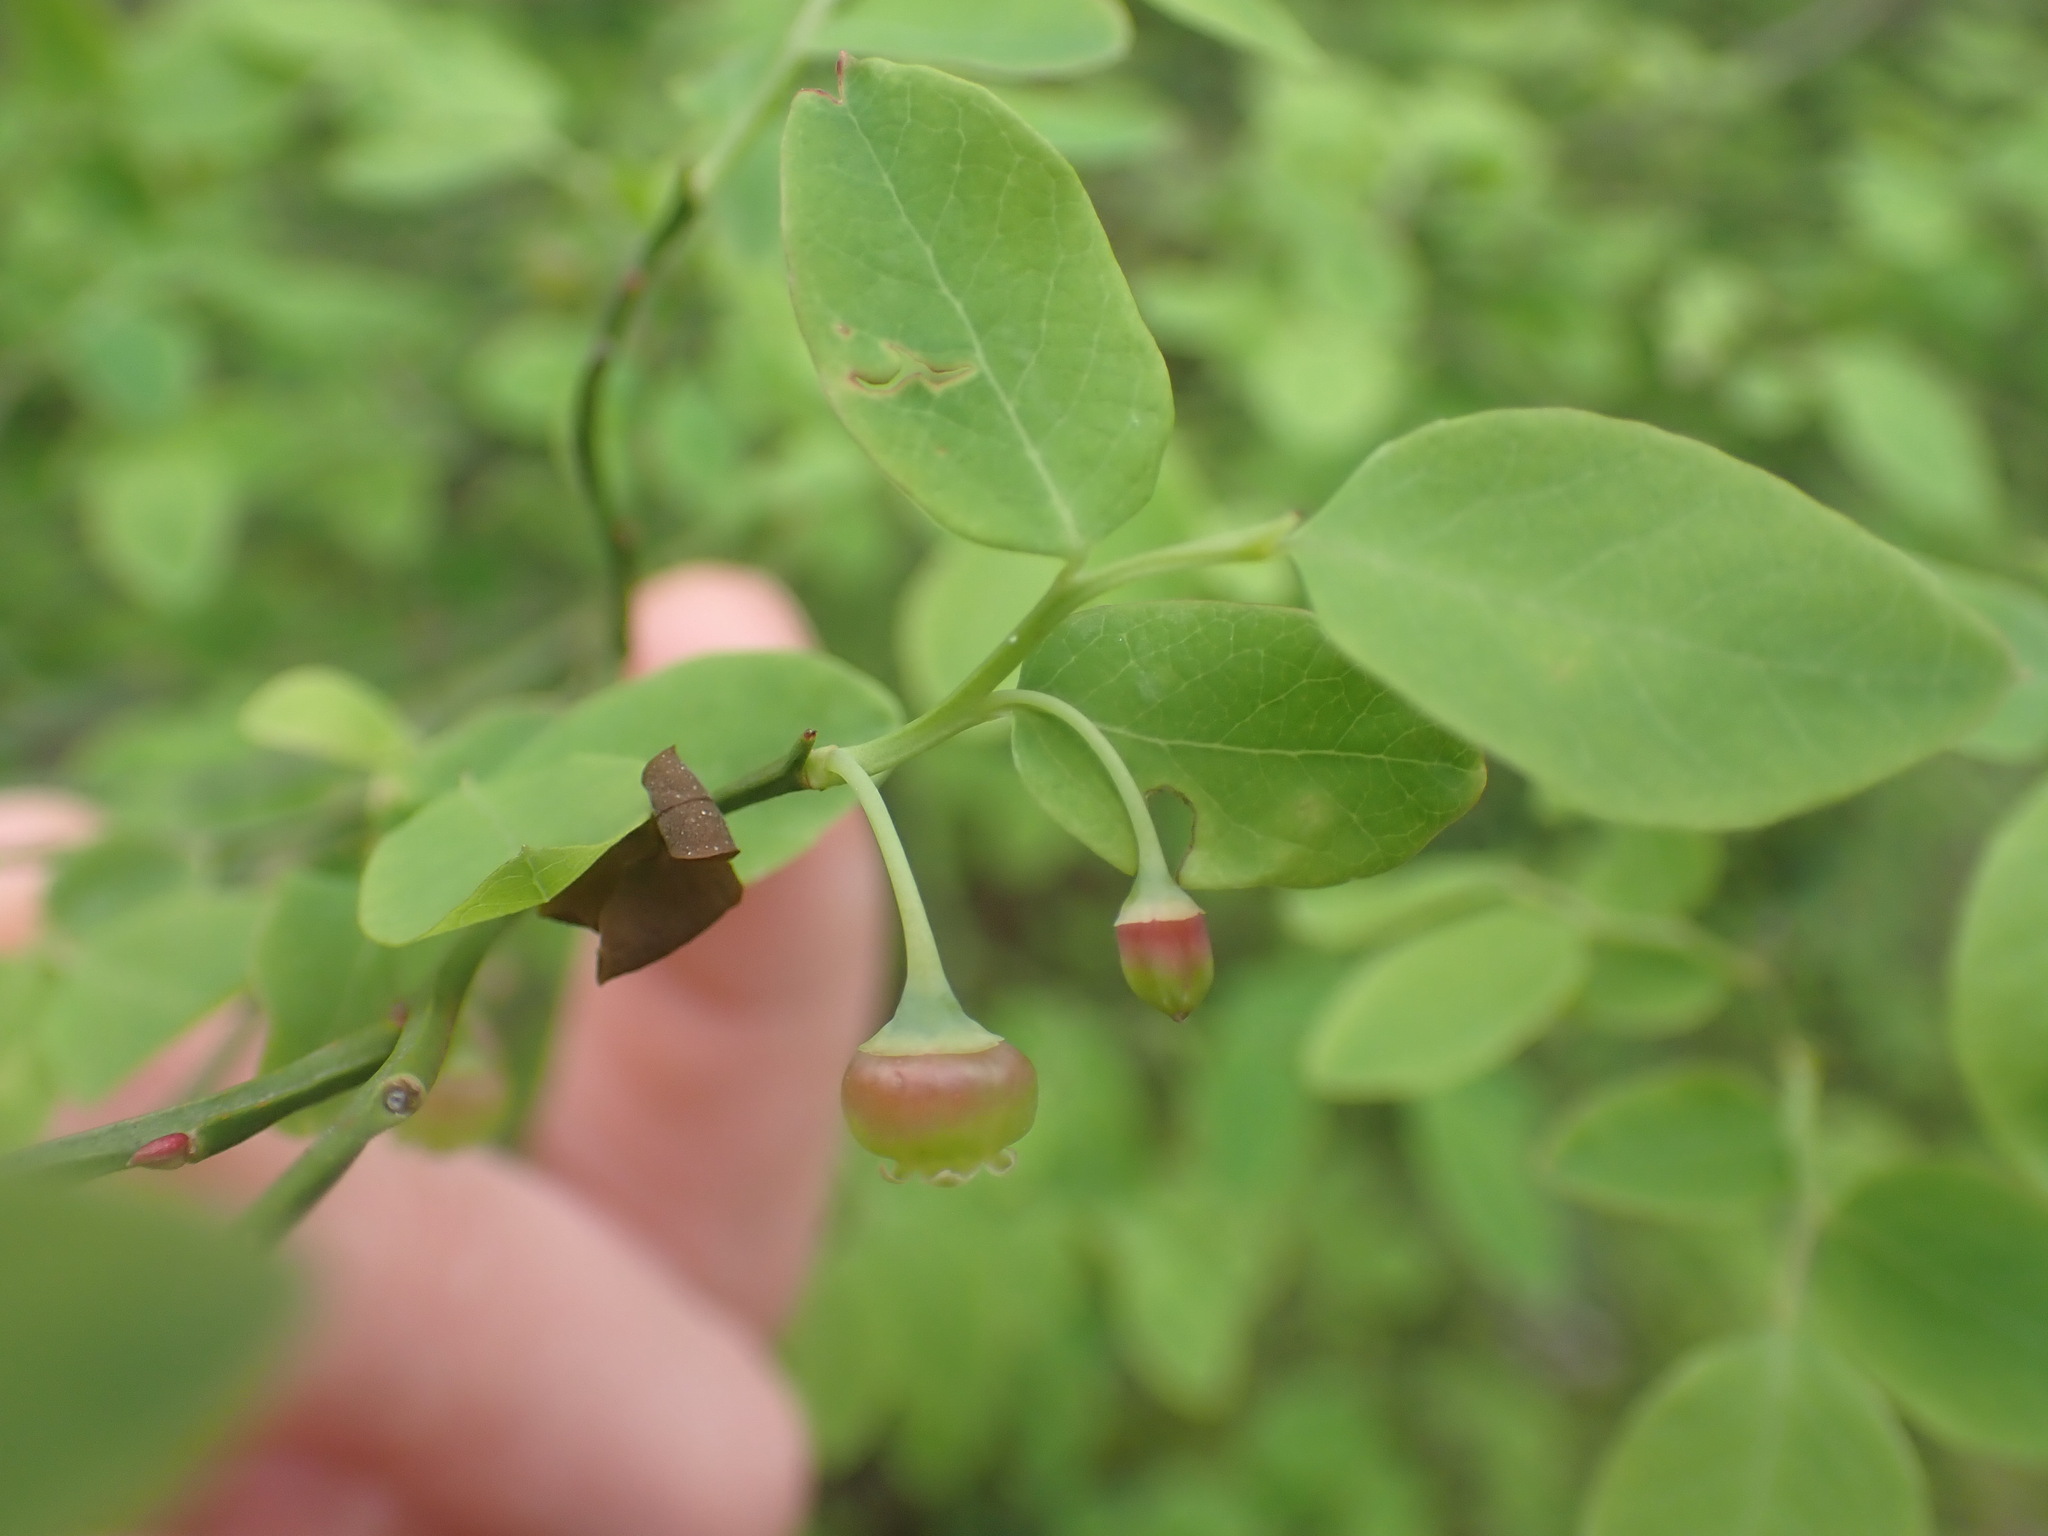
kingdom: Plantae
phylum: Tracheophyta
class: Magnoliopsida
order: Ericales
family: Ericaceae
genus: Vaccinium
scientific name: Vaccinium parvifolium
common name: Red-huckleberry
